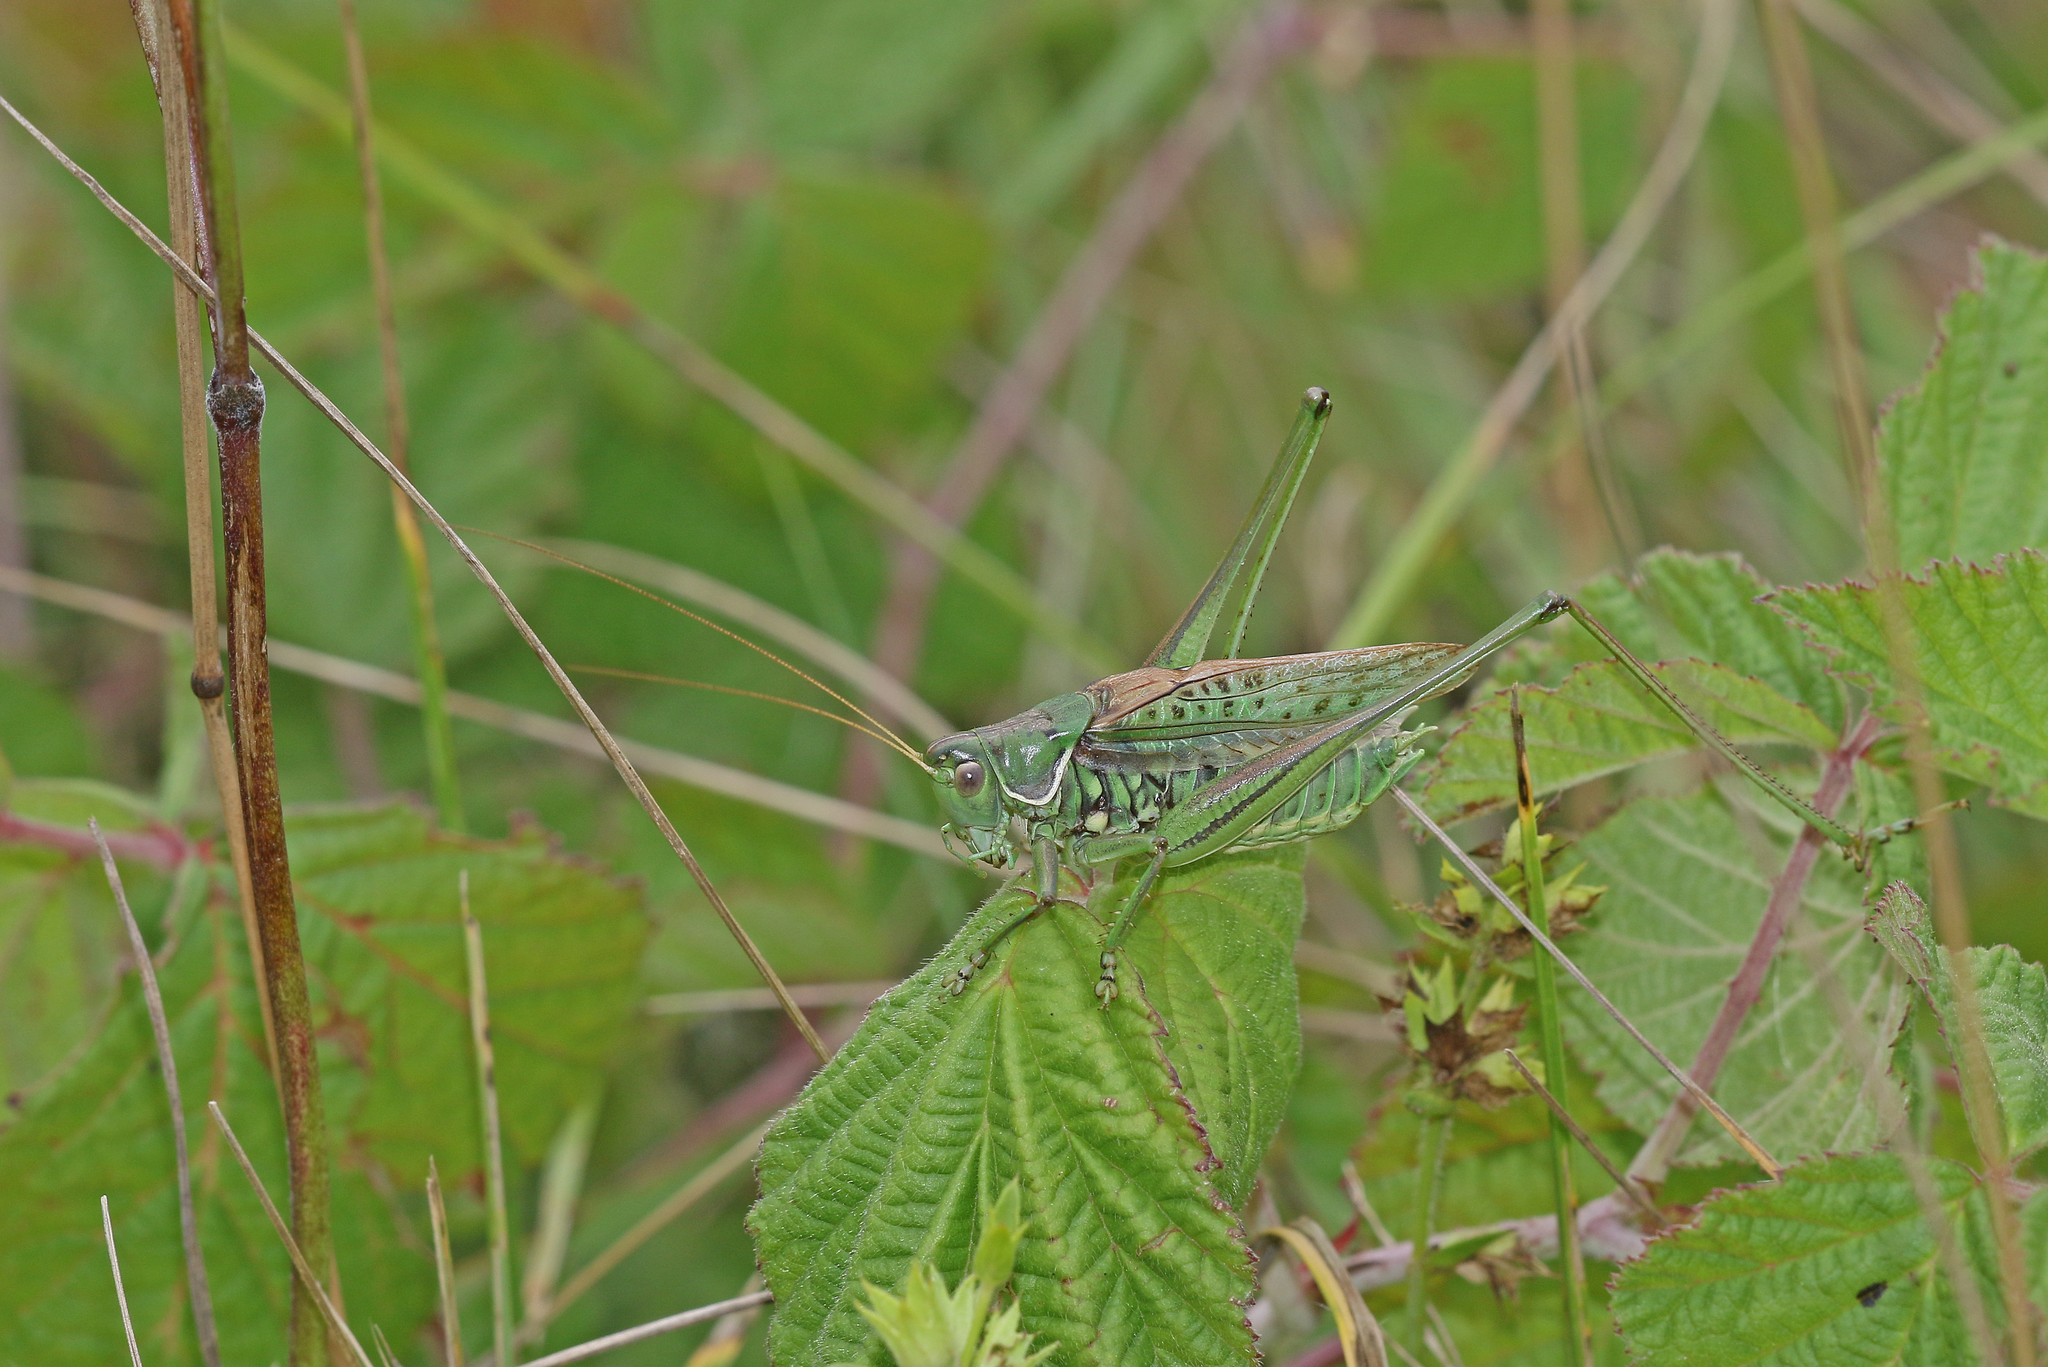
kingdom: Animalia
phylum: Arthropoda
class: Insecta
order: Orthoptera
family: Tettigoniidae
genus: Gampsocleis
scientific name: Gampsocleis glabra
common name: Heath bushcricket
